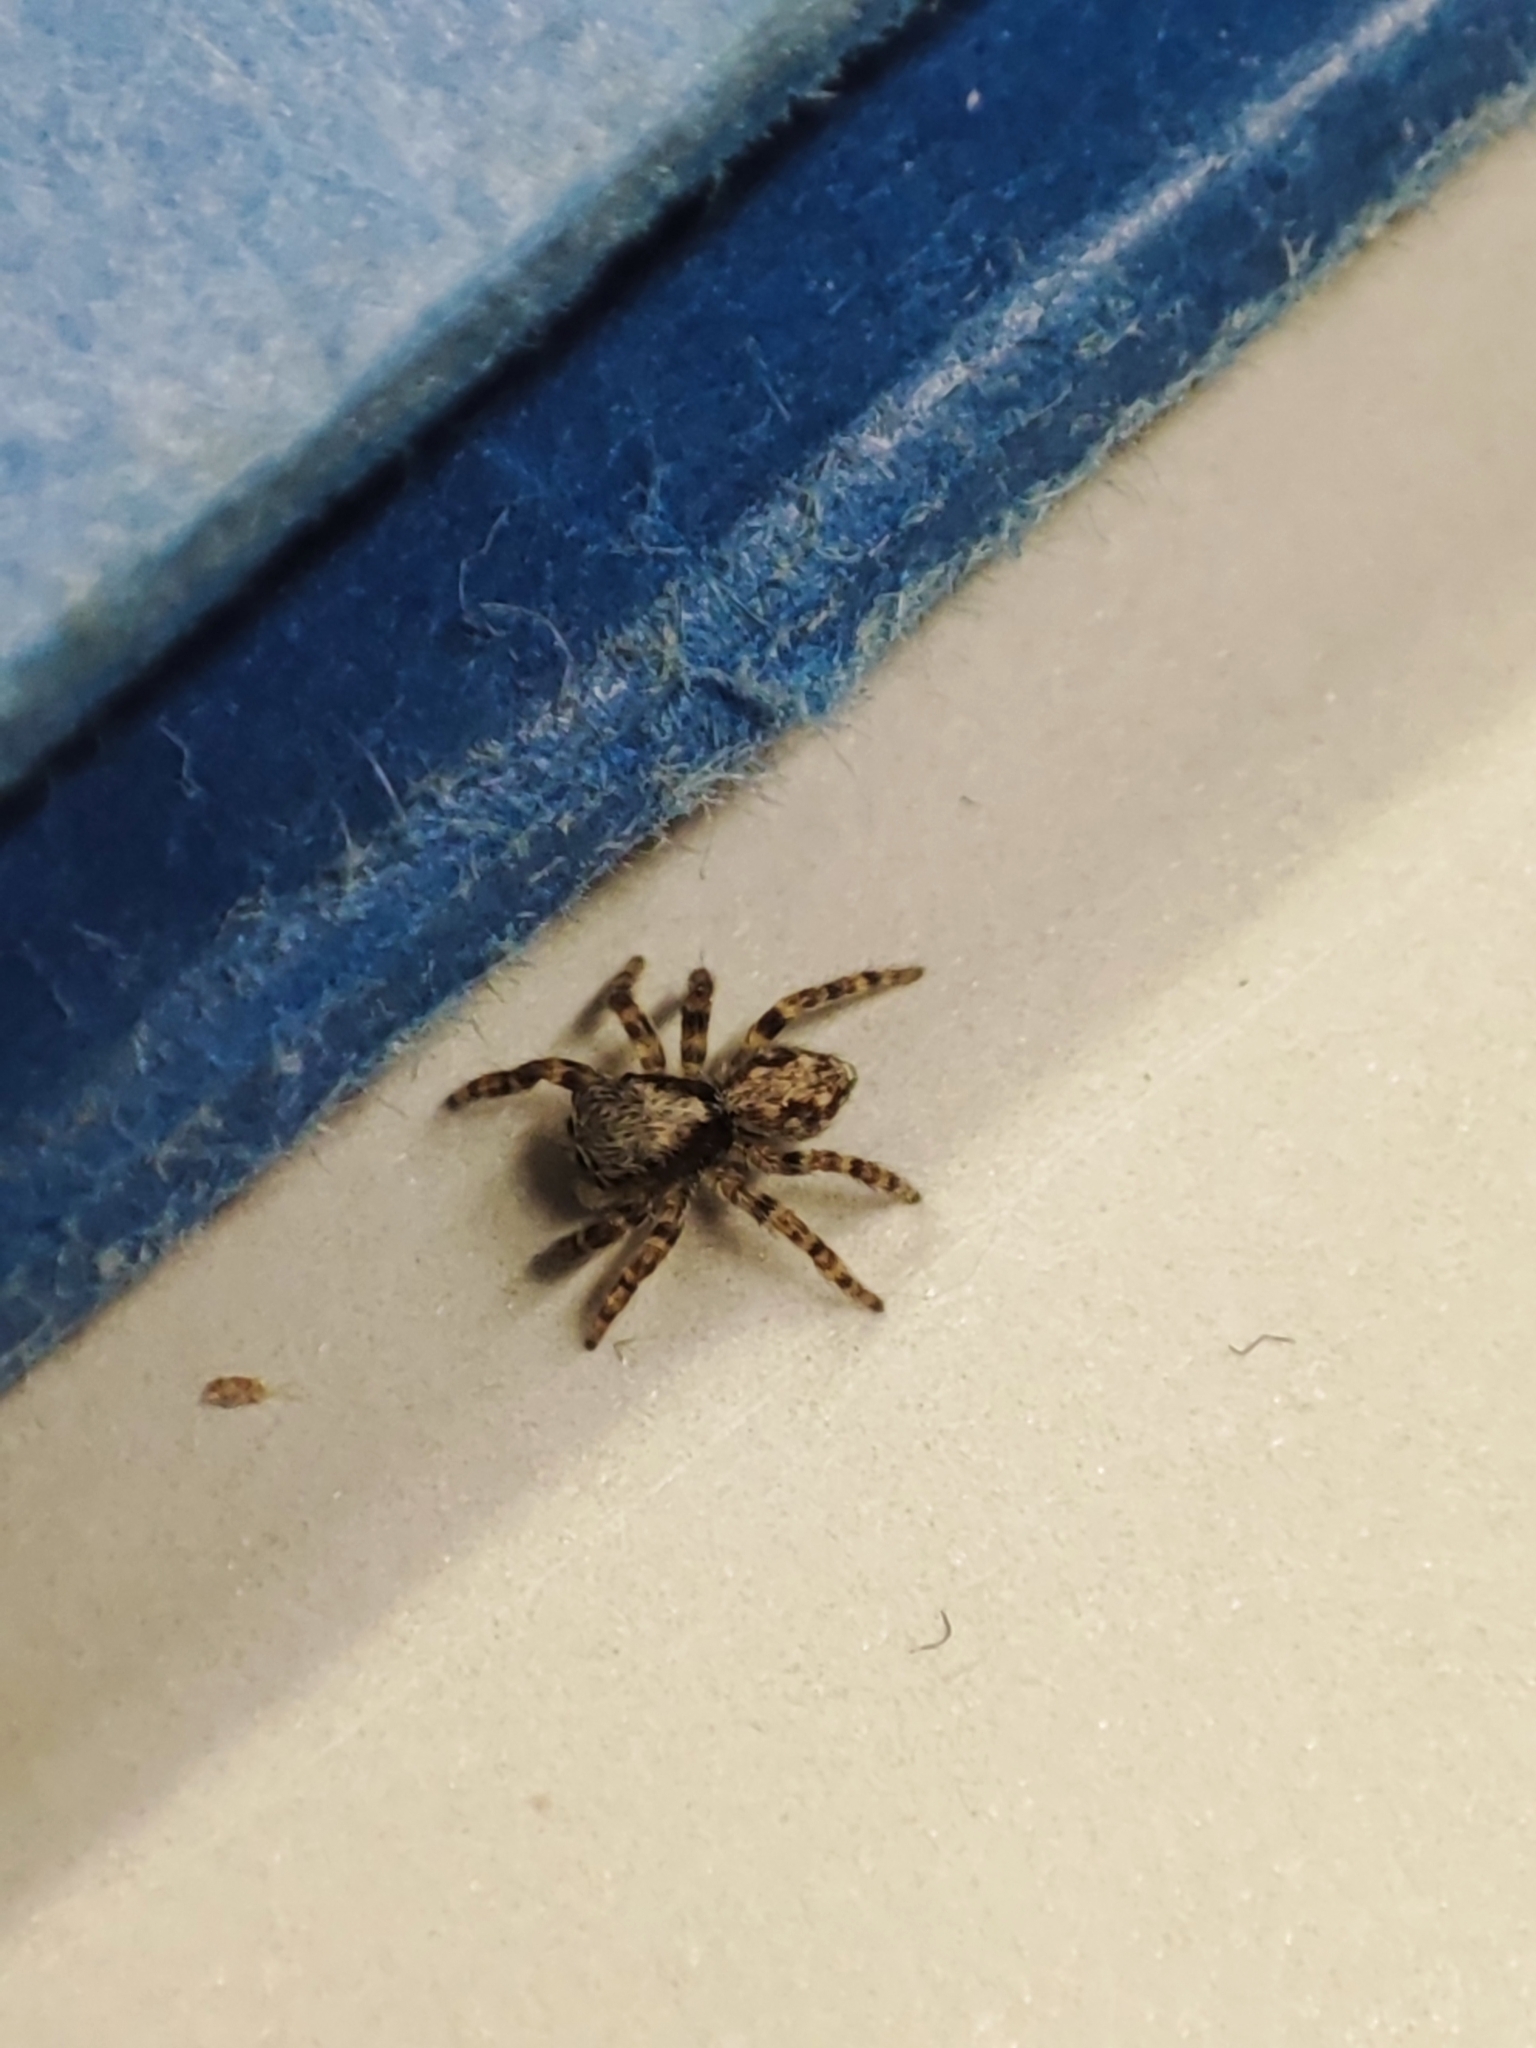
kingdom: Animalia
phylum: Arthropoda
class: Arachnida
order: Araneae
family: Salticidae
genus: Pseudeuophrys
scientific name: Pseudeuophrys lanigera
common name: Jumping spider
